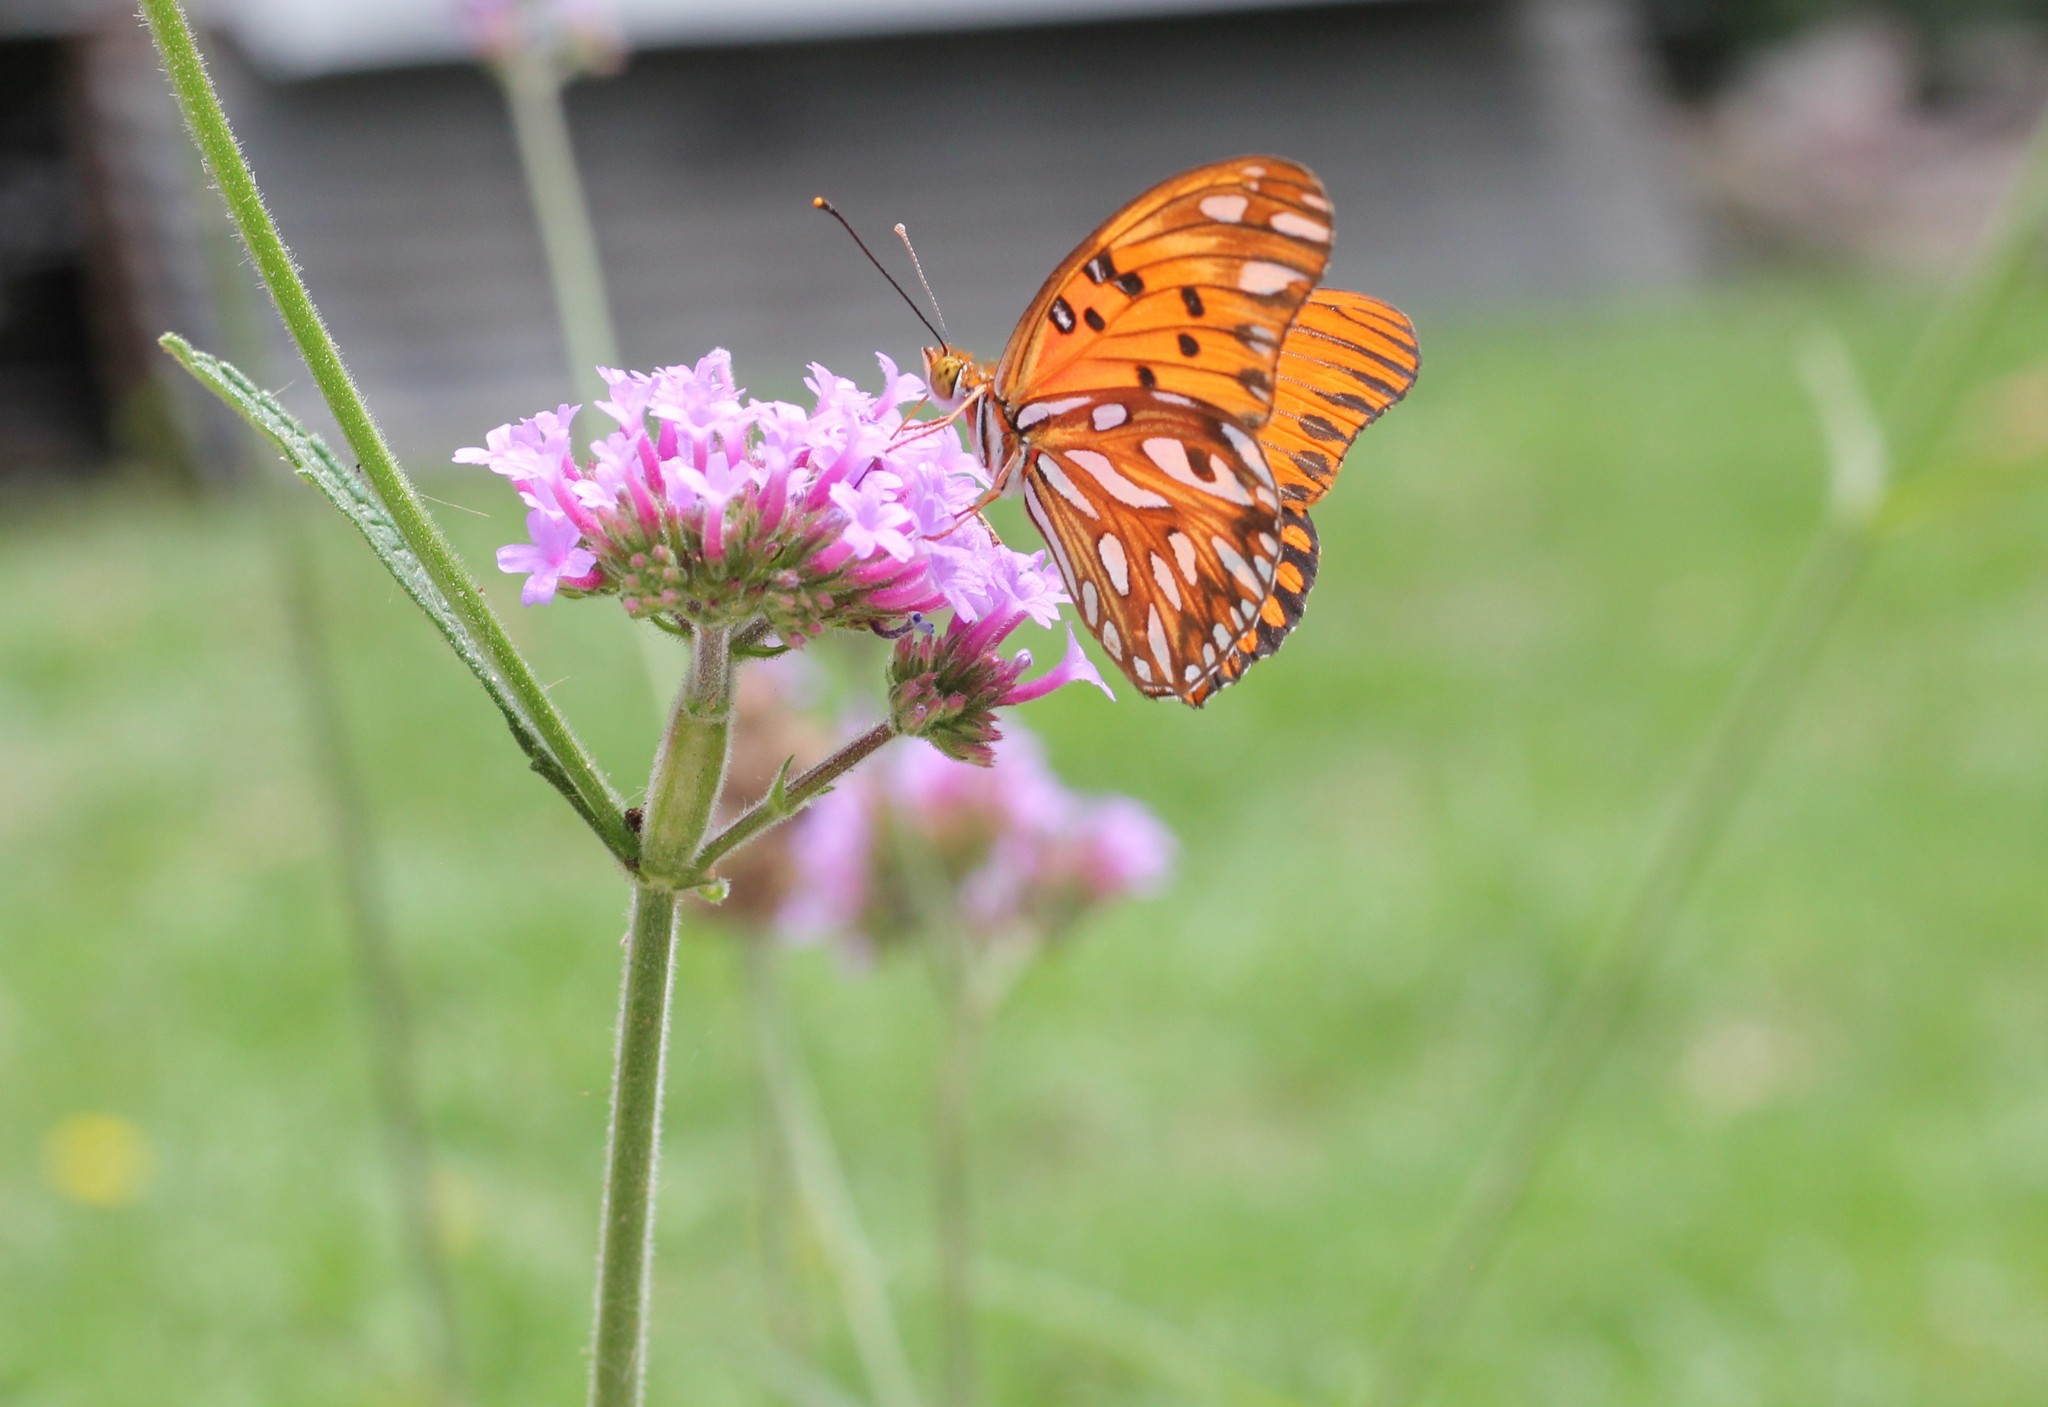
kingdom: Animalia
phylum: Arthropoda
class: Insecta
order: Lepidoptera
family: Nymphalidae
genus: Dione
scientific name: Dione vanillae
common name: Gulf fritillary
